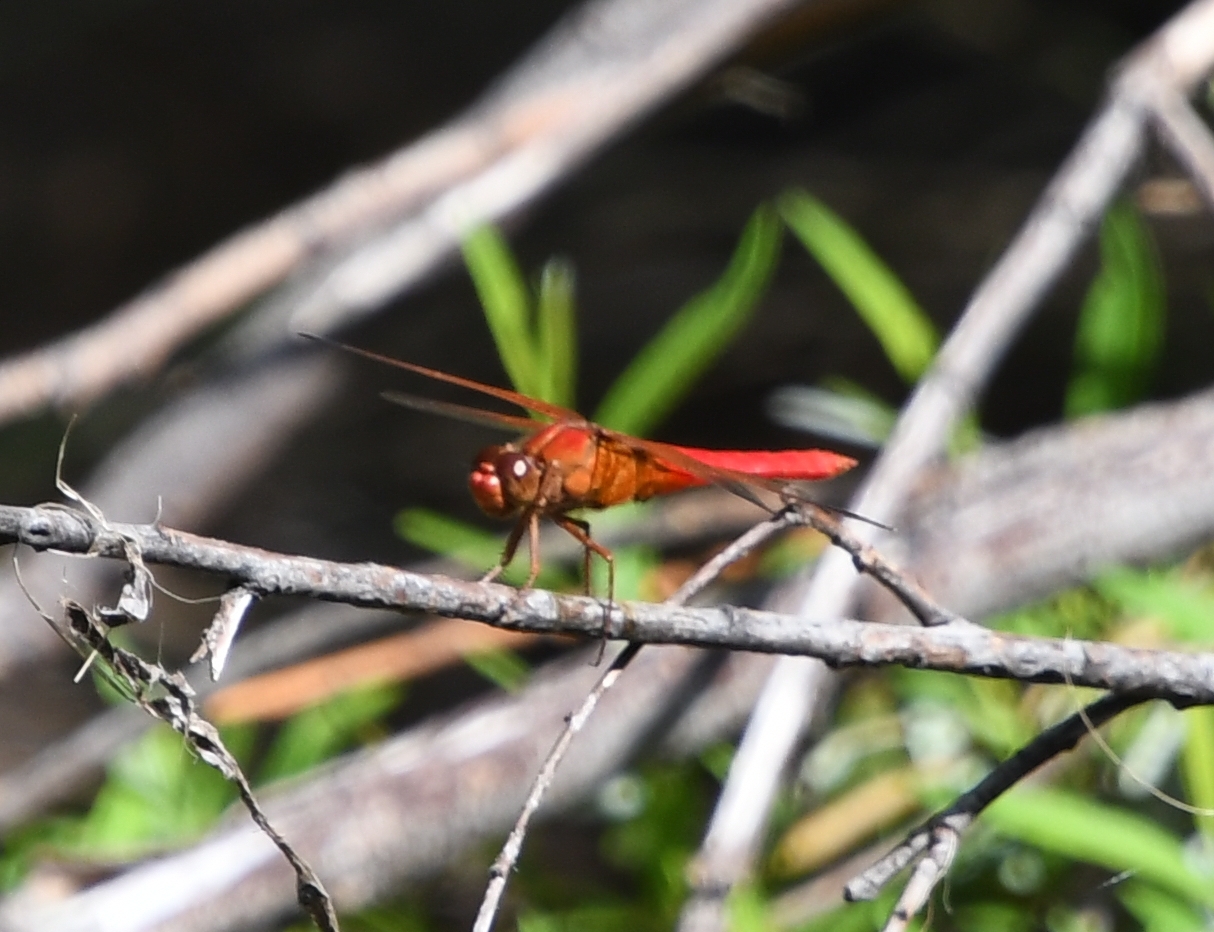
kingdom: Animalia
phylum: Arthropoda
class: Insecta
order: Odonata
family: Libellulidae
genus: Libellula
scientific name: Libellula croceipennis
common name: Neon skimmer
